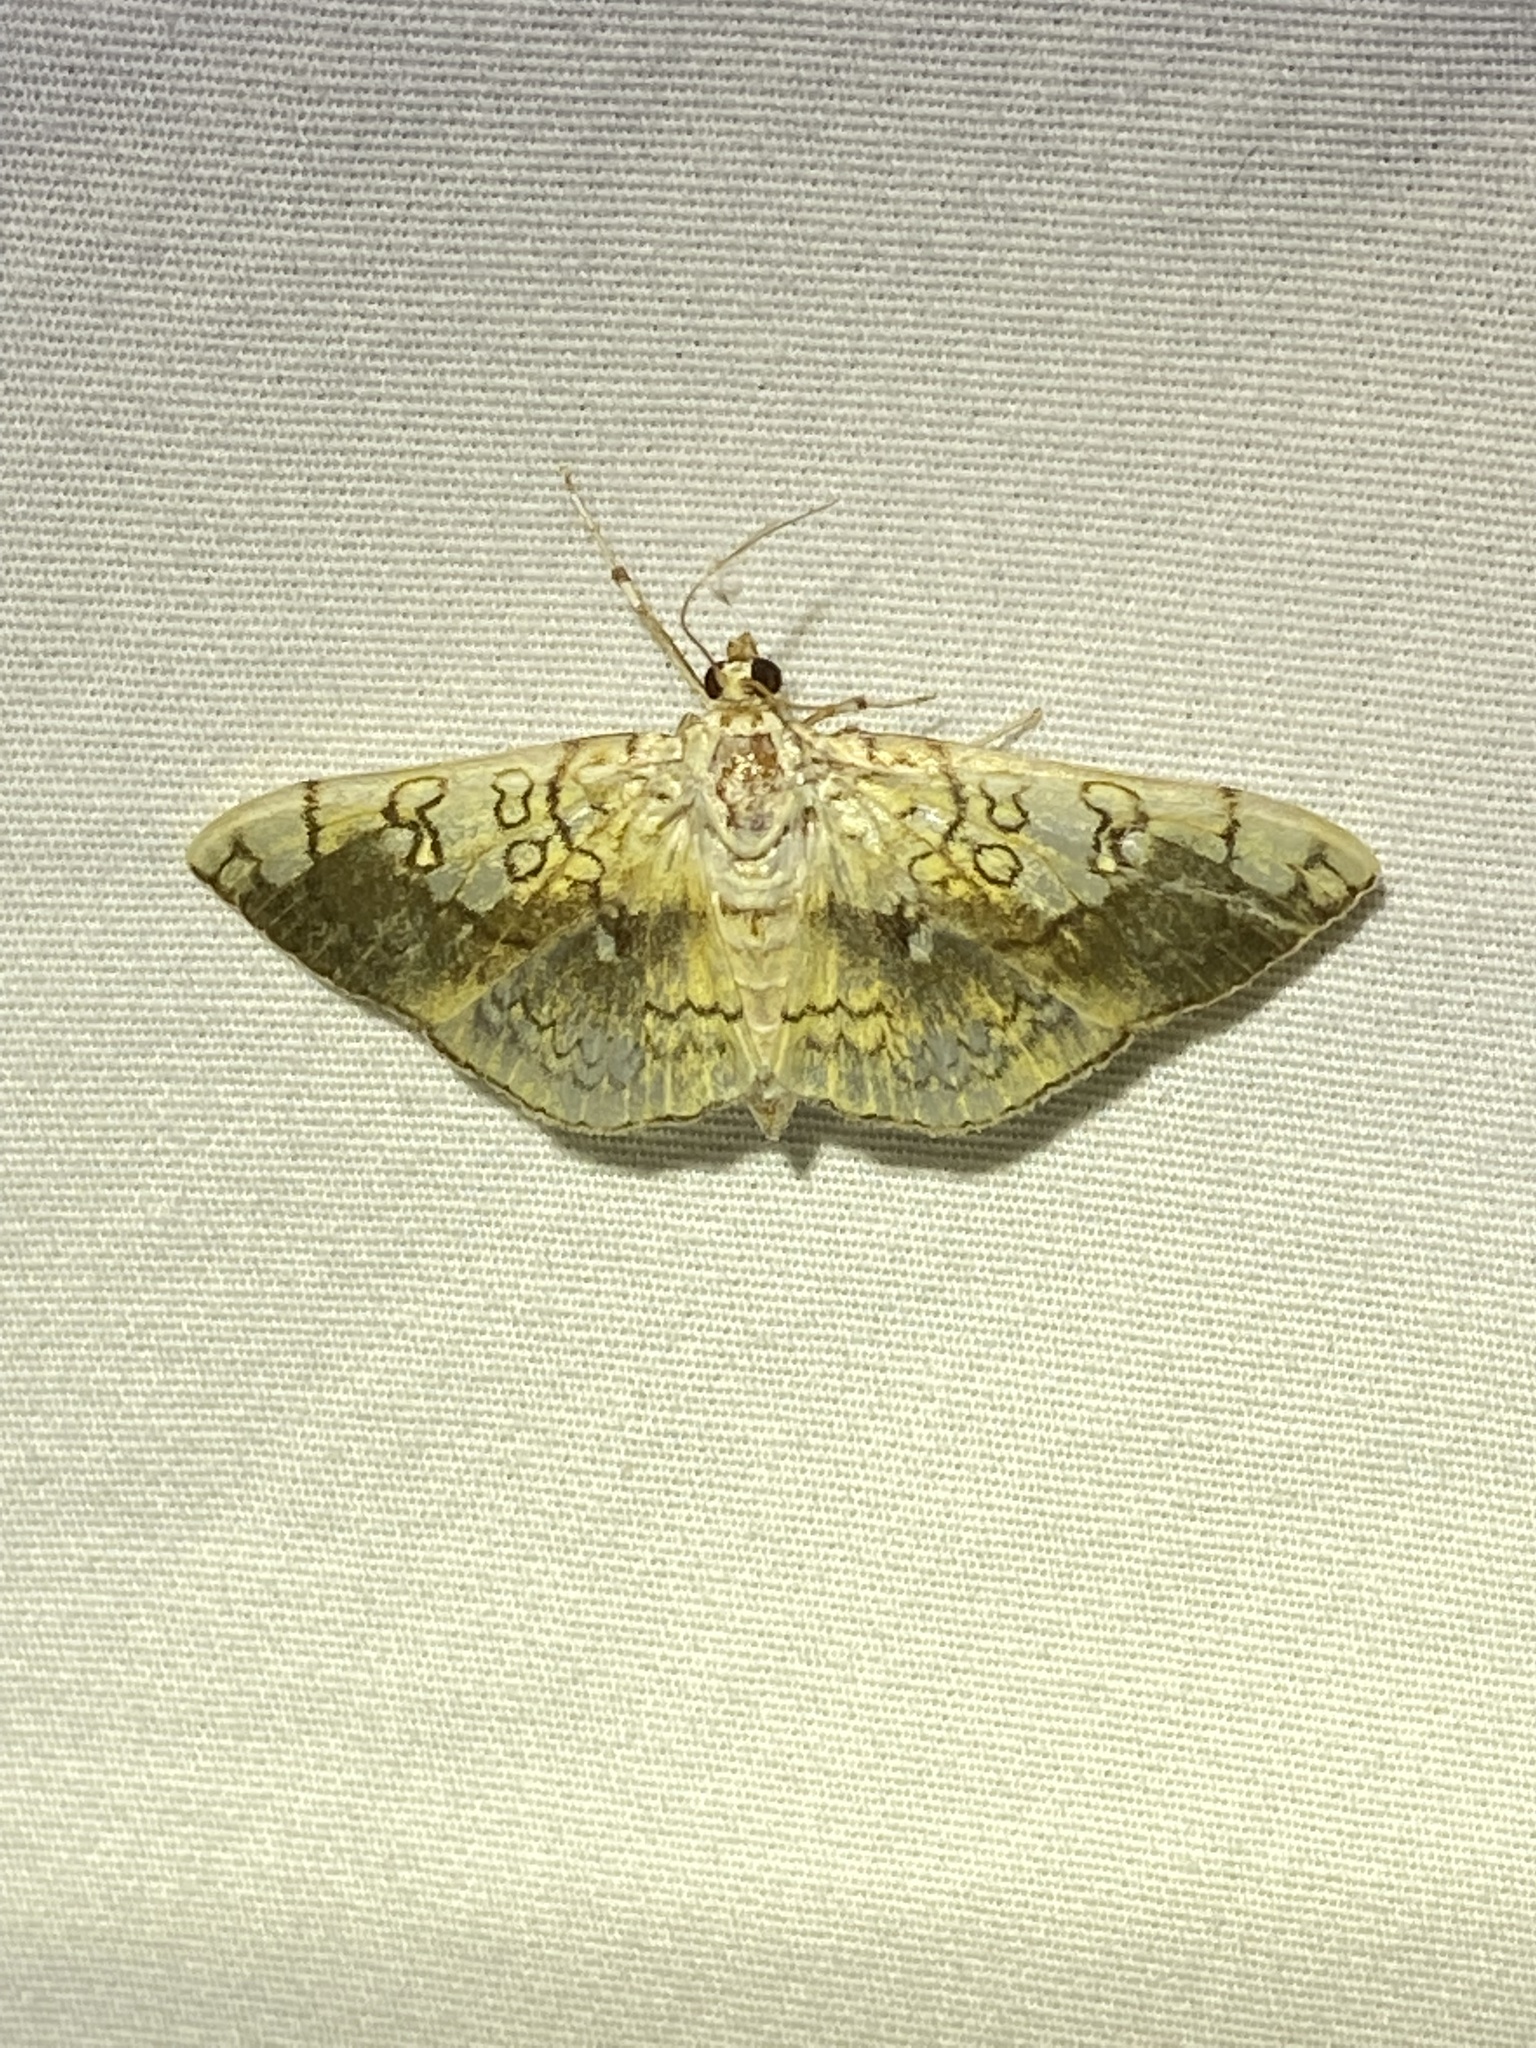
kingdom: Animalia
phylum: Arthropoda
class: Insecta
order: Lepidoptera
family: Crambidae
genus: Pantographa
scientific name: Pantographa limata
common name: Basswood leafroller moth
